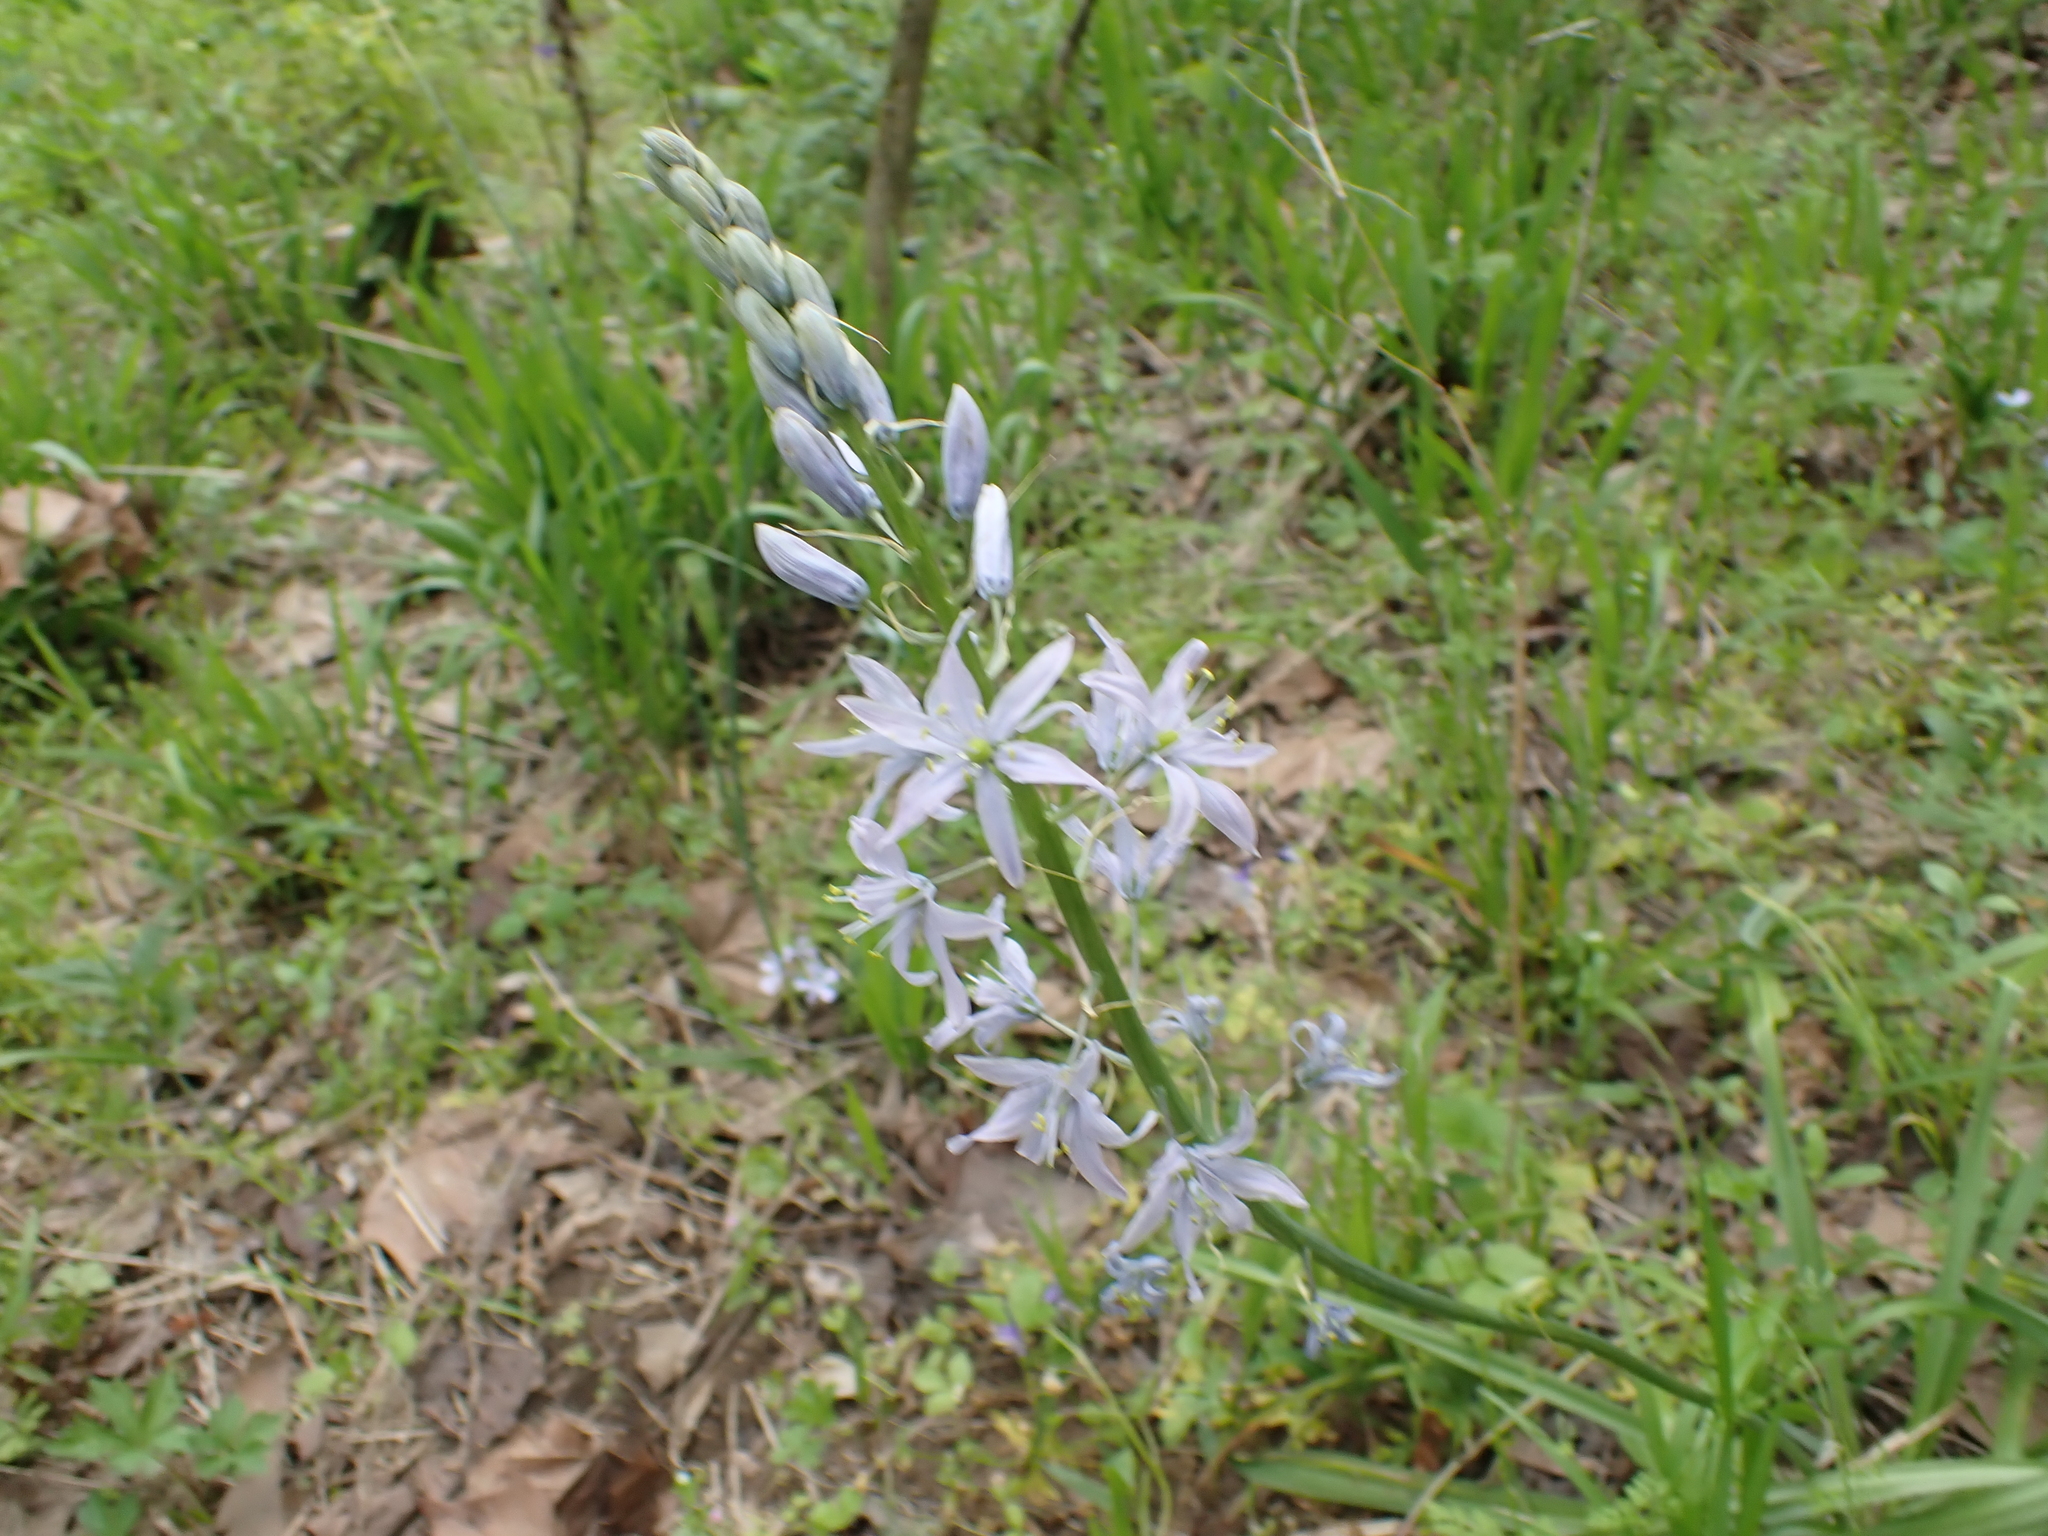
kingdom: Plantae
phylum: Tracheophyta
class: Liliopsida
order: Asparagales
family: Asparagaceae
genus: Camassia
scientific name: Camassia scilloides
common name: Wild hyacinth
